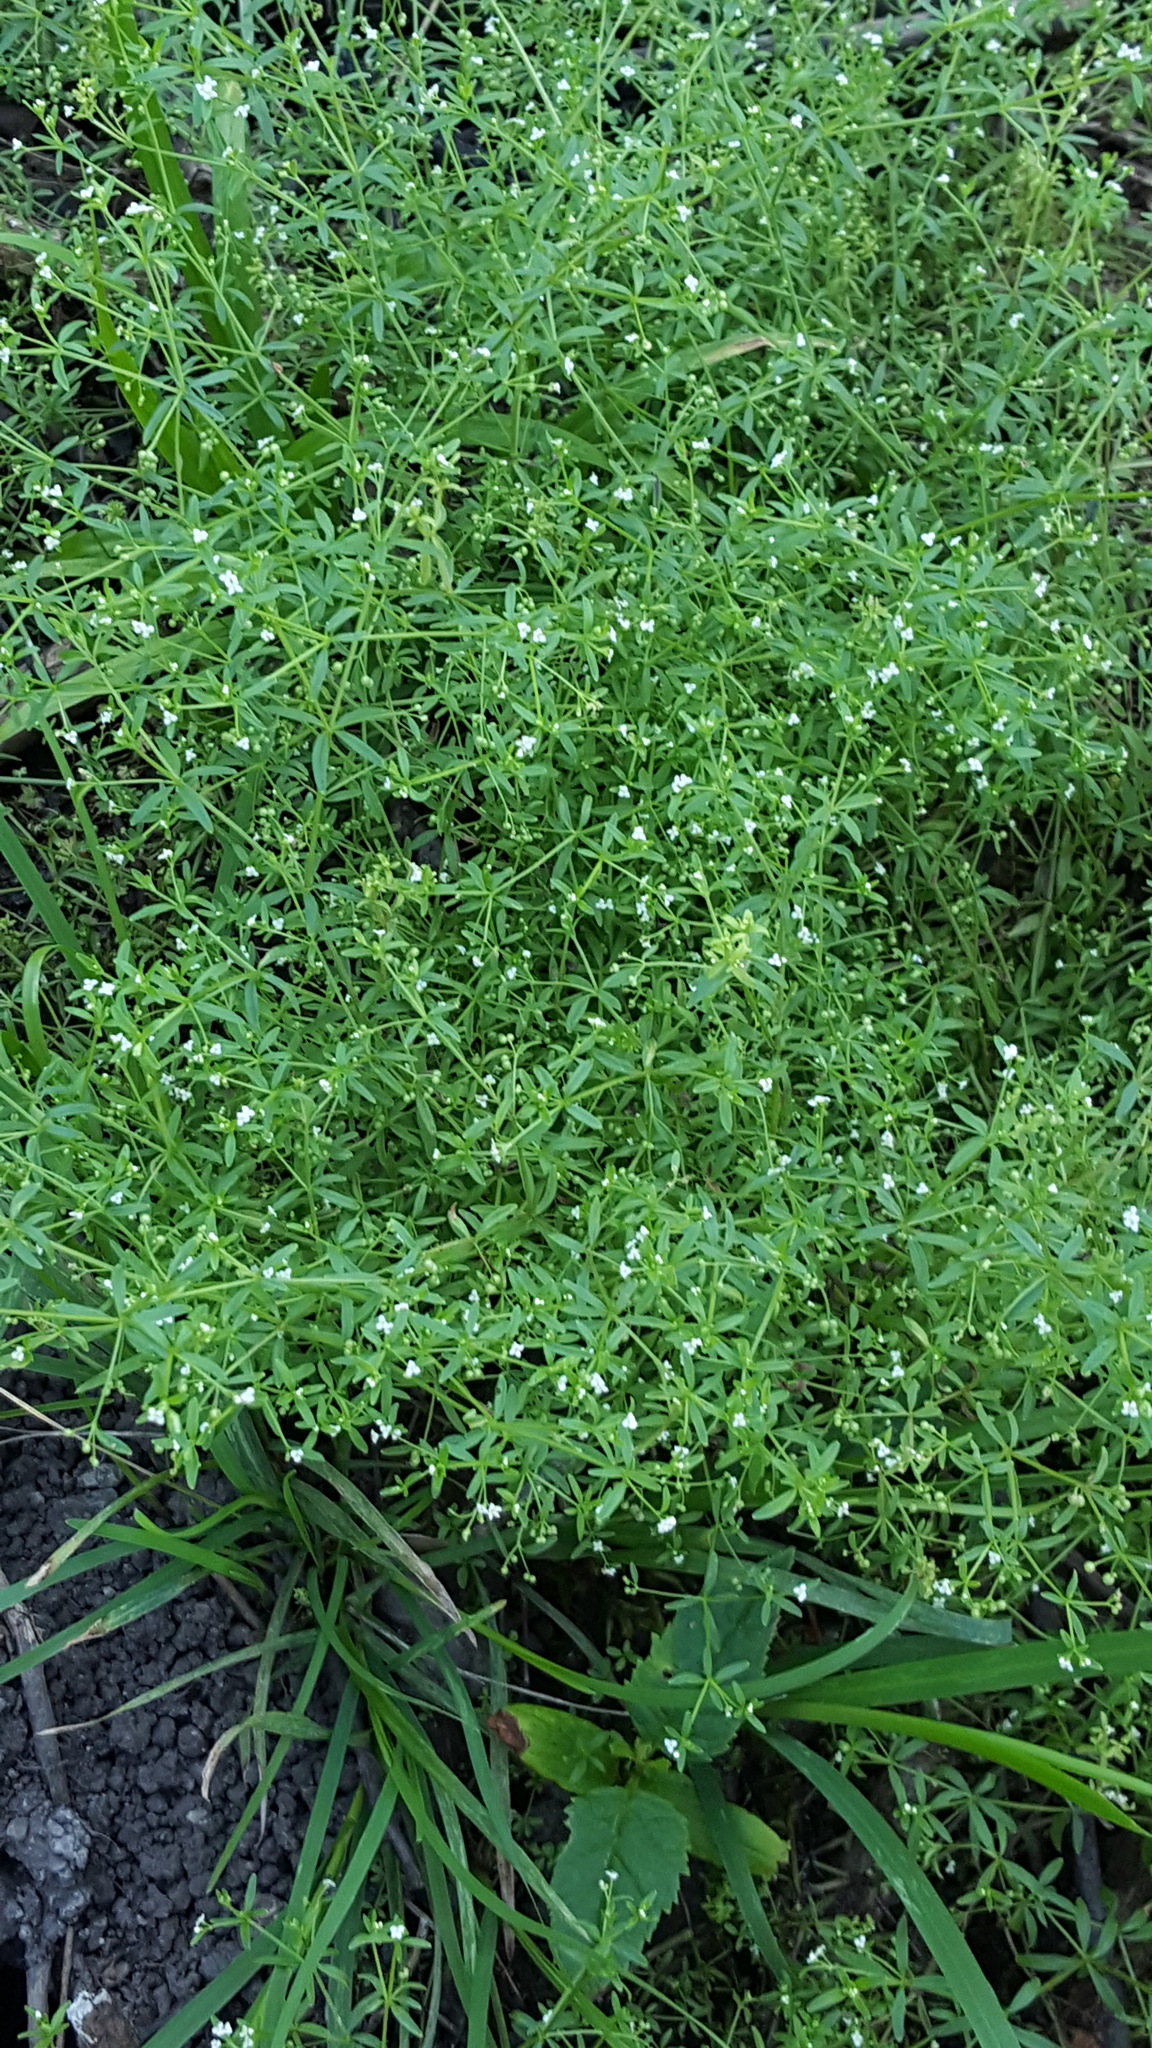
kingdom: Plantae
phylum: Tracheophyta
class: Magnoliopsida
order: Gentianales
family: Rubiaceae
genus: Galium
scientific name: Galium trifidum
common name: Small bedstraw
